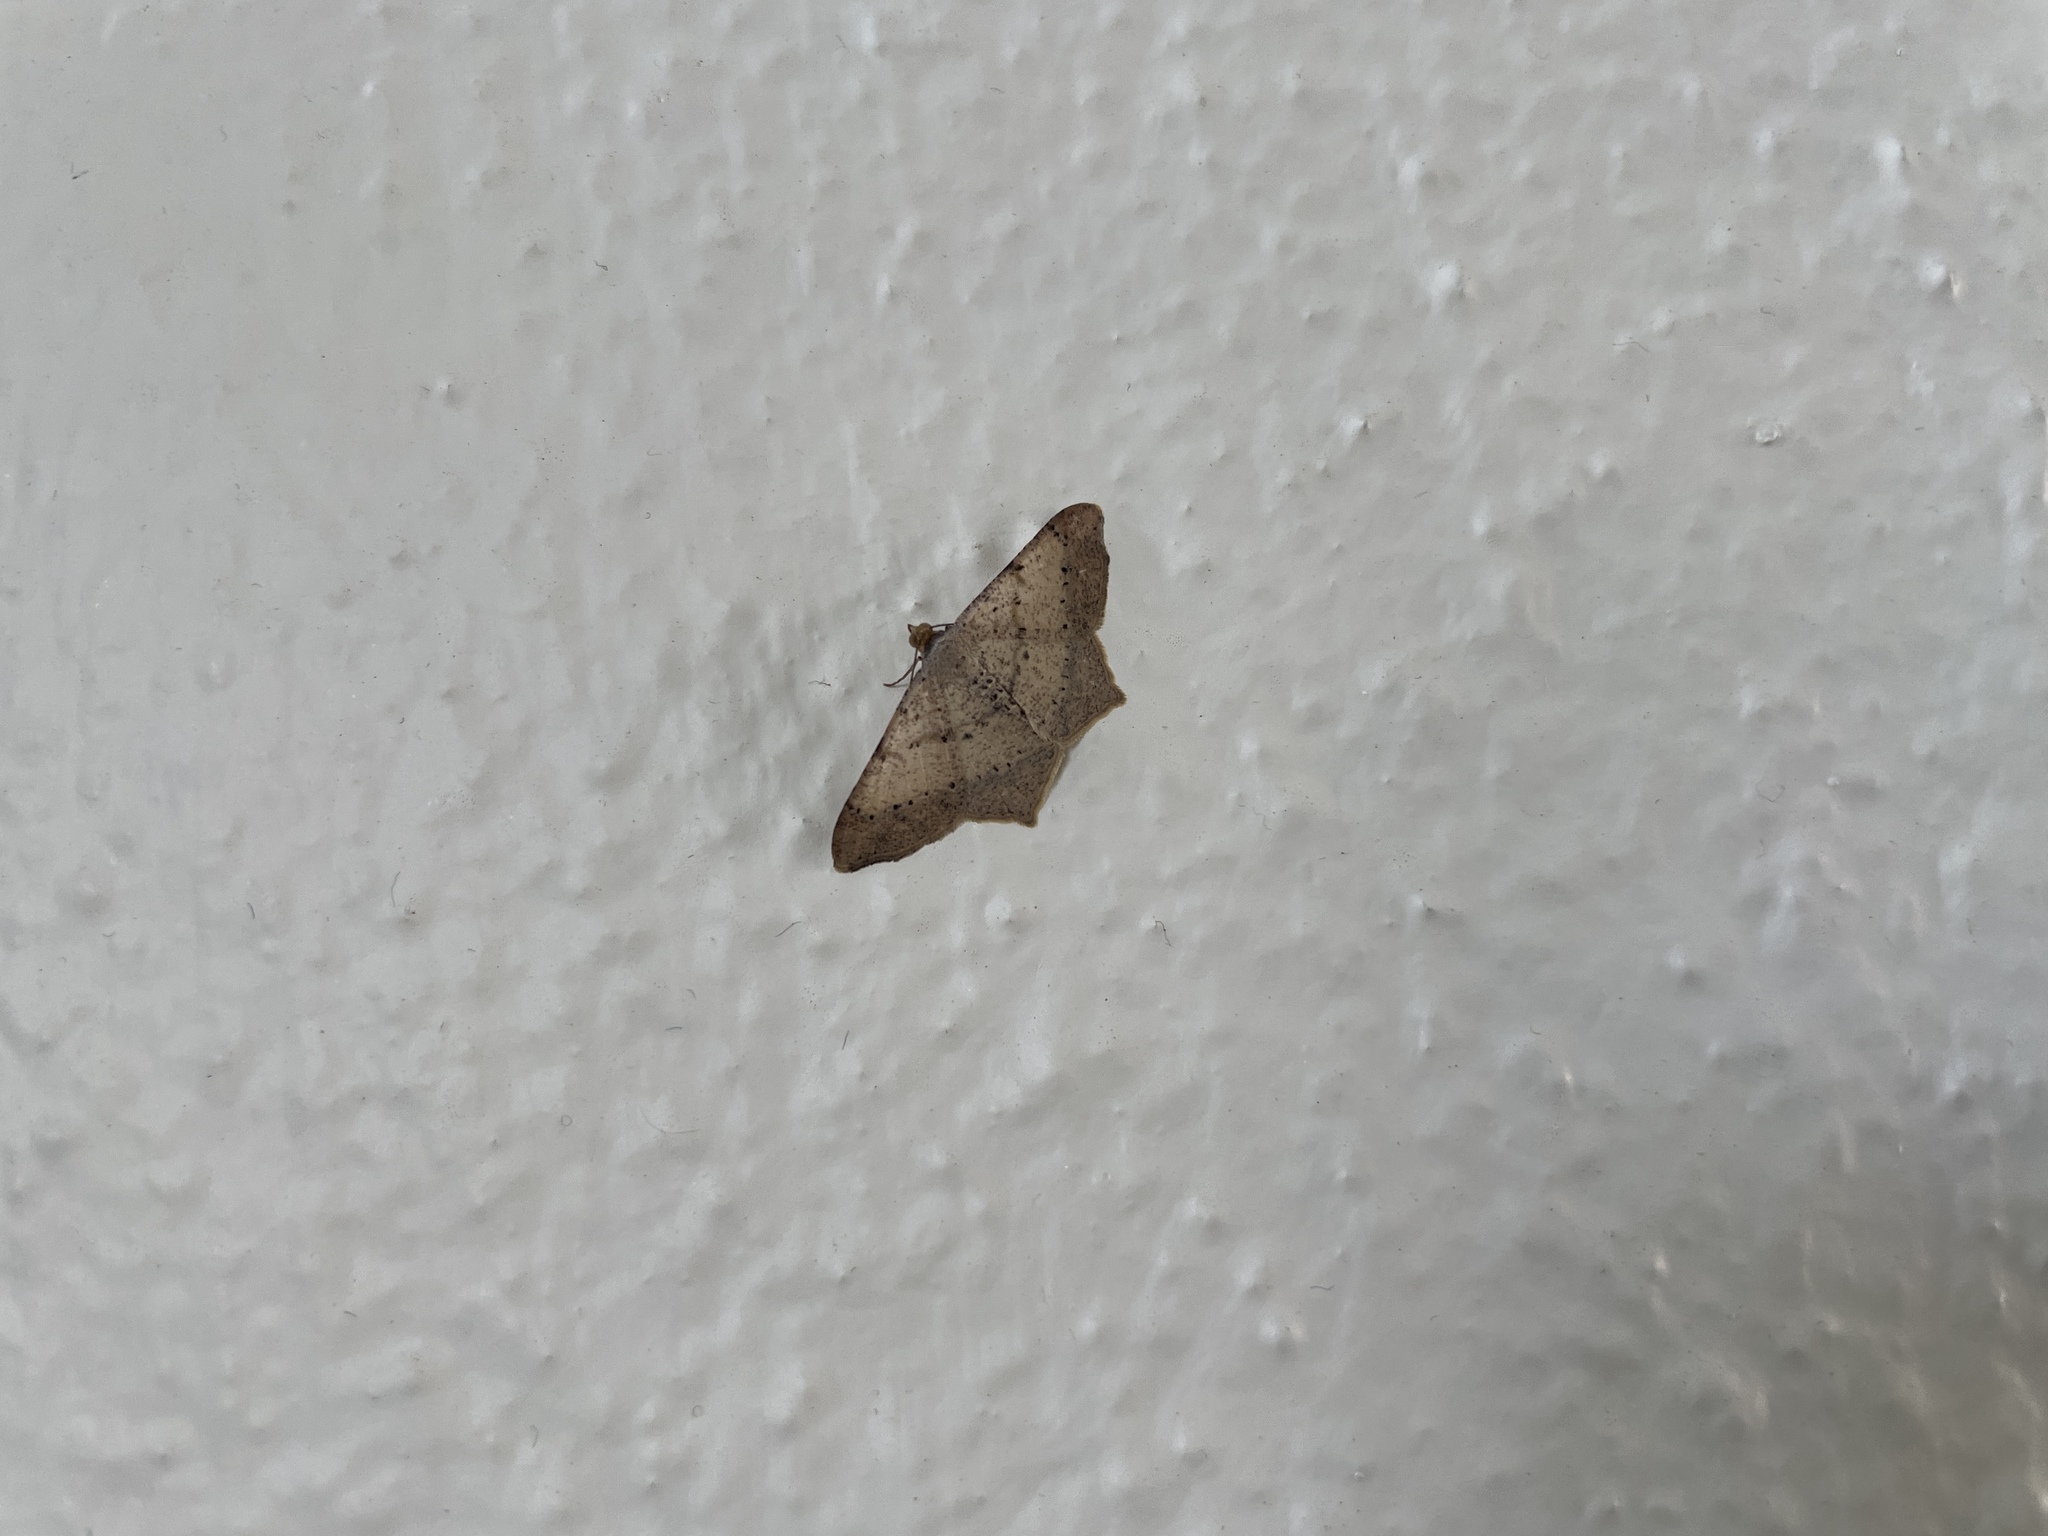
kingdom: Animalia
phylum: Arthropoda
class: Insecta
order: Lepidoptera
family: Geometridae
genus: Macaria
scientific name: Macaria abydata
